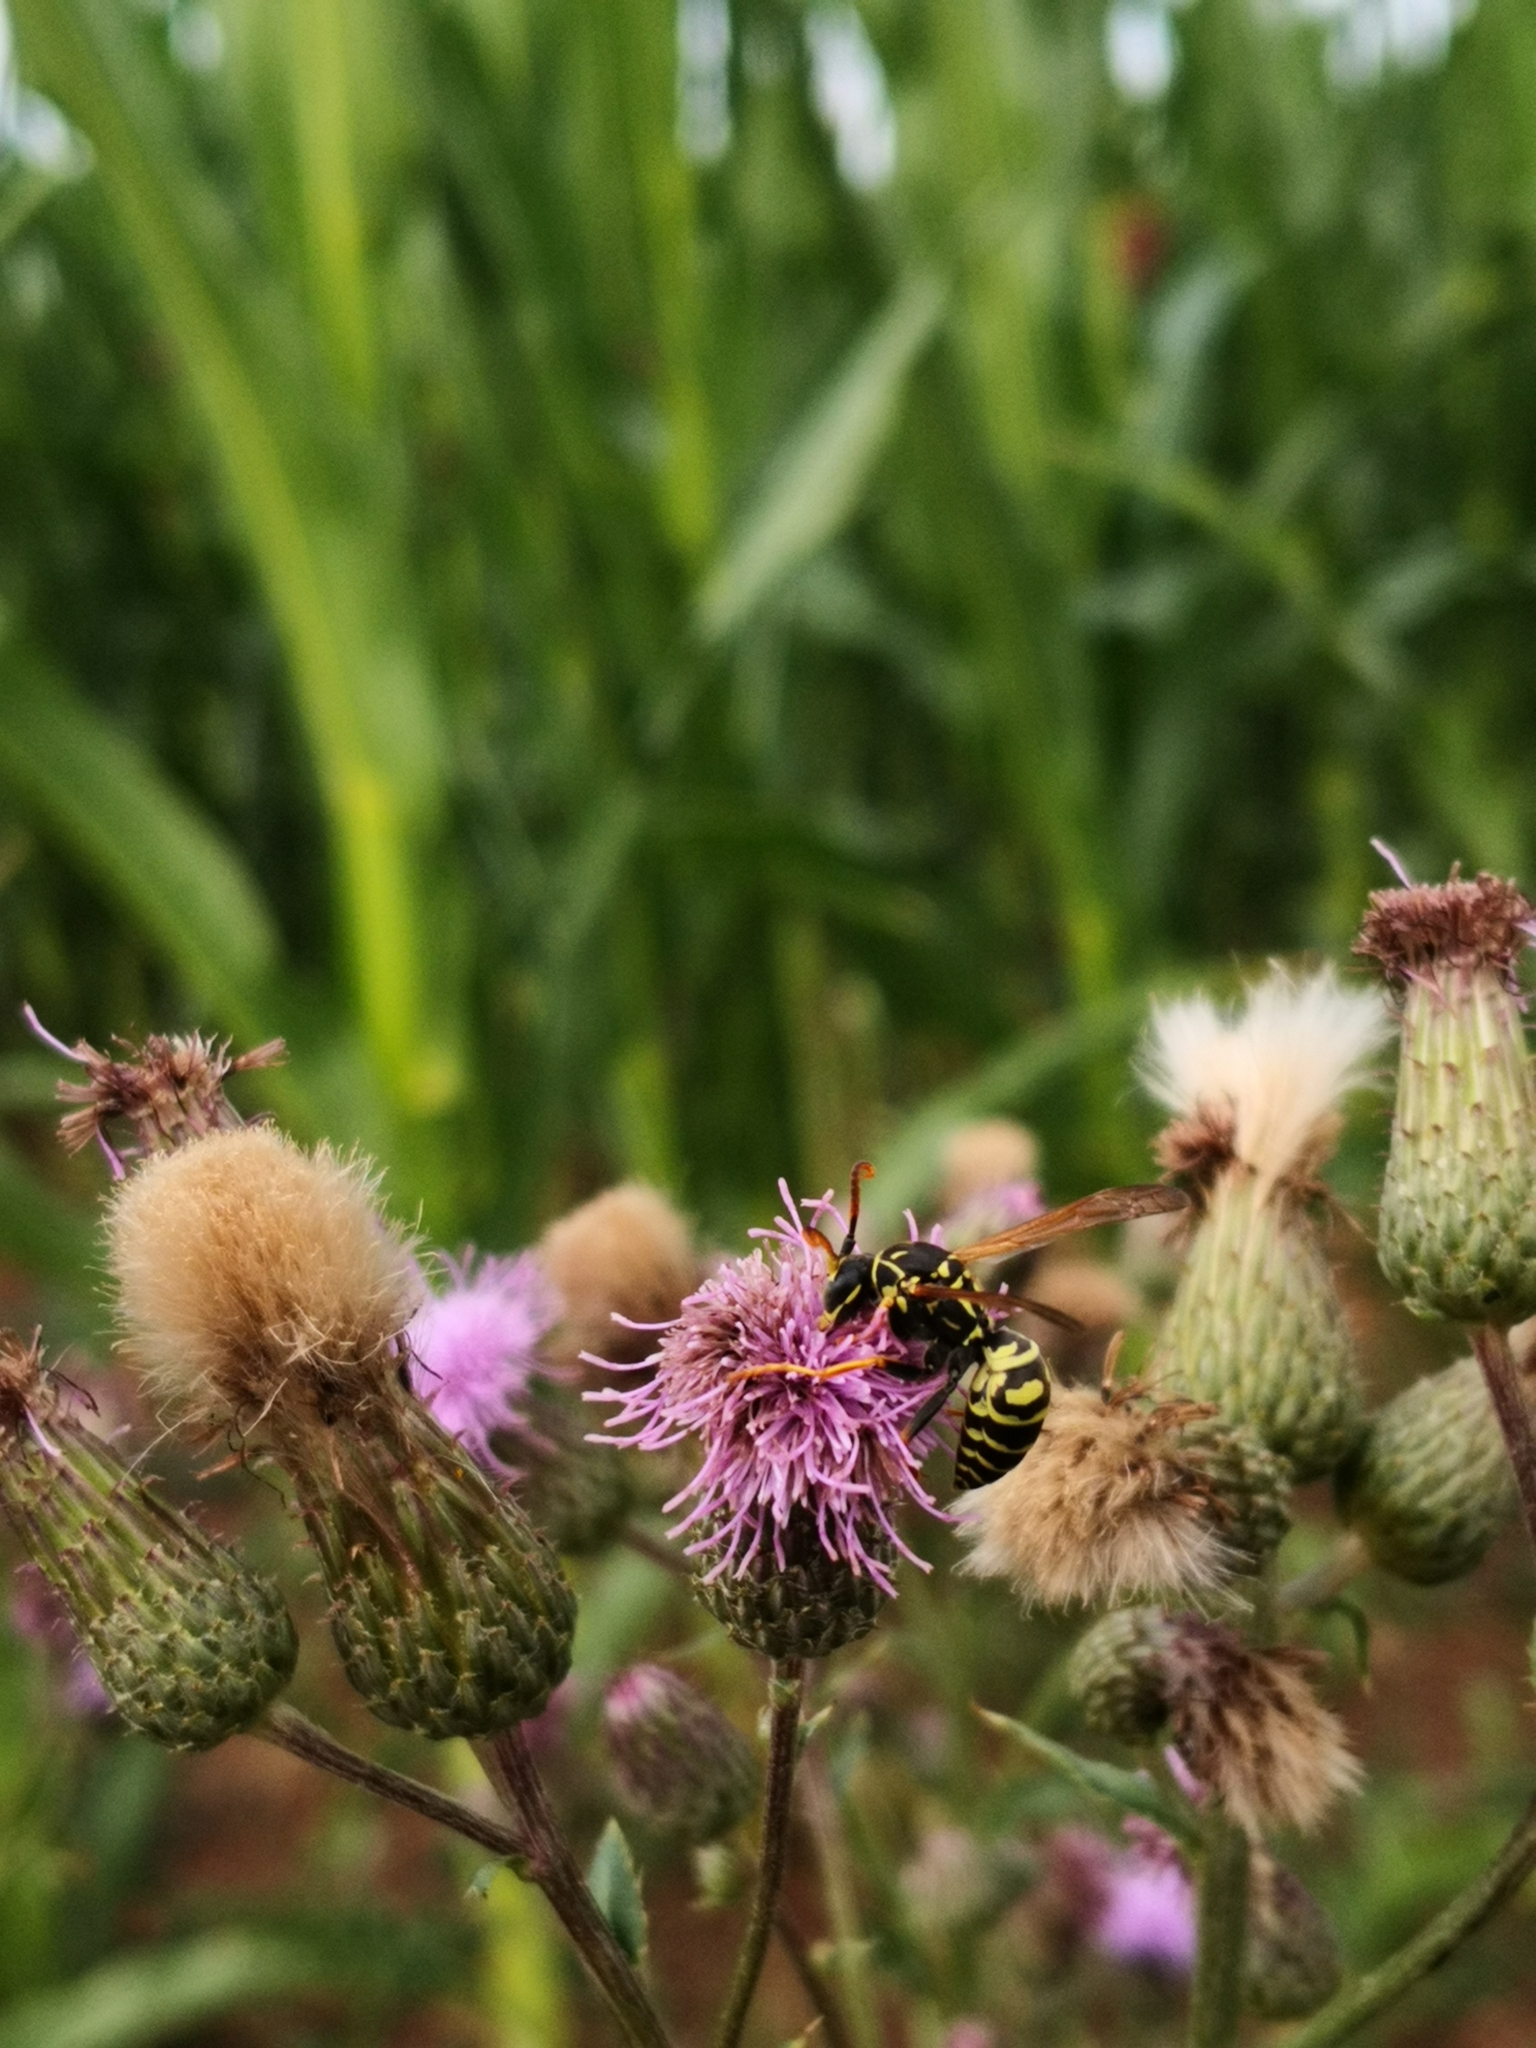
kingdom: Animalia
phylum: Arthropoda
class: Insecta
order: Hymenoptera
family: Eumenidae
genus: Polistes
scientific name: Polistes nimpha
